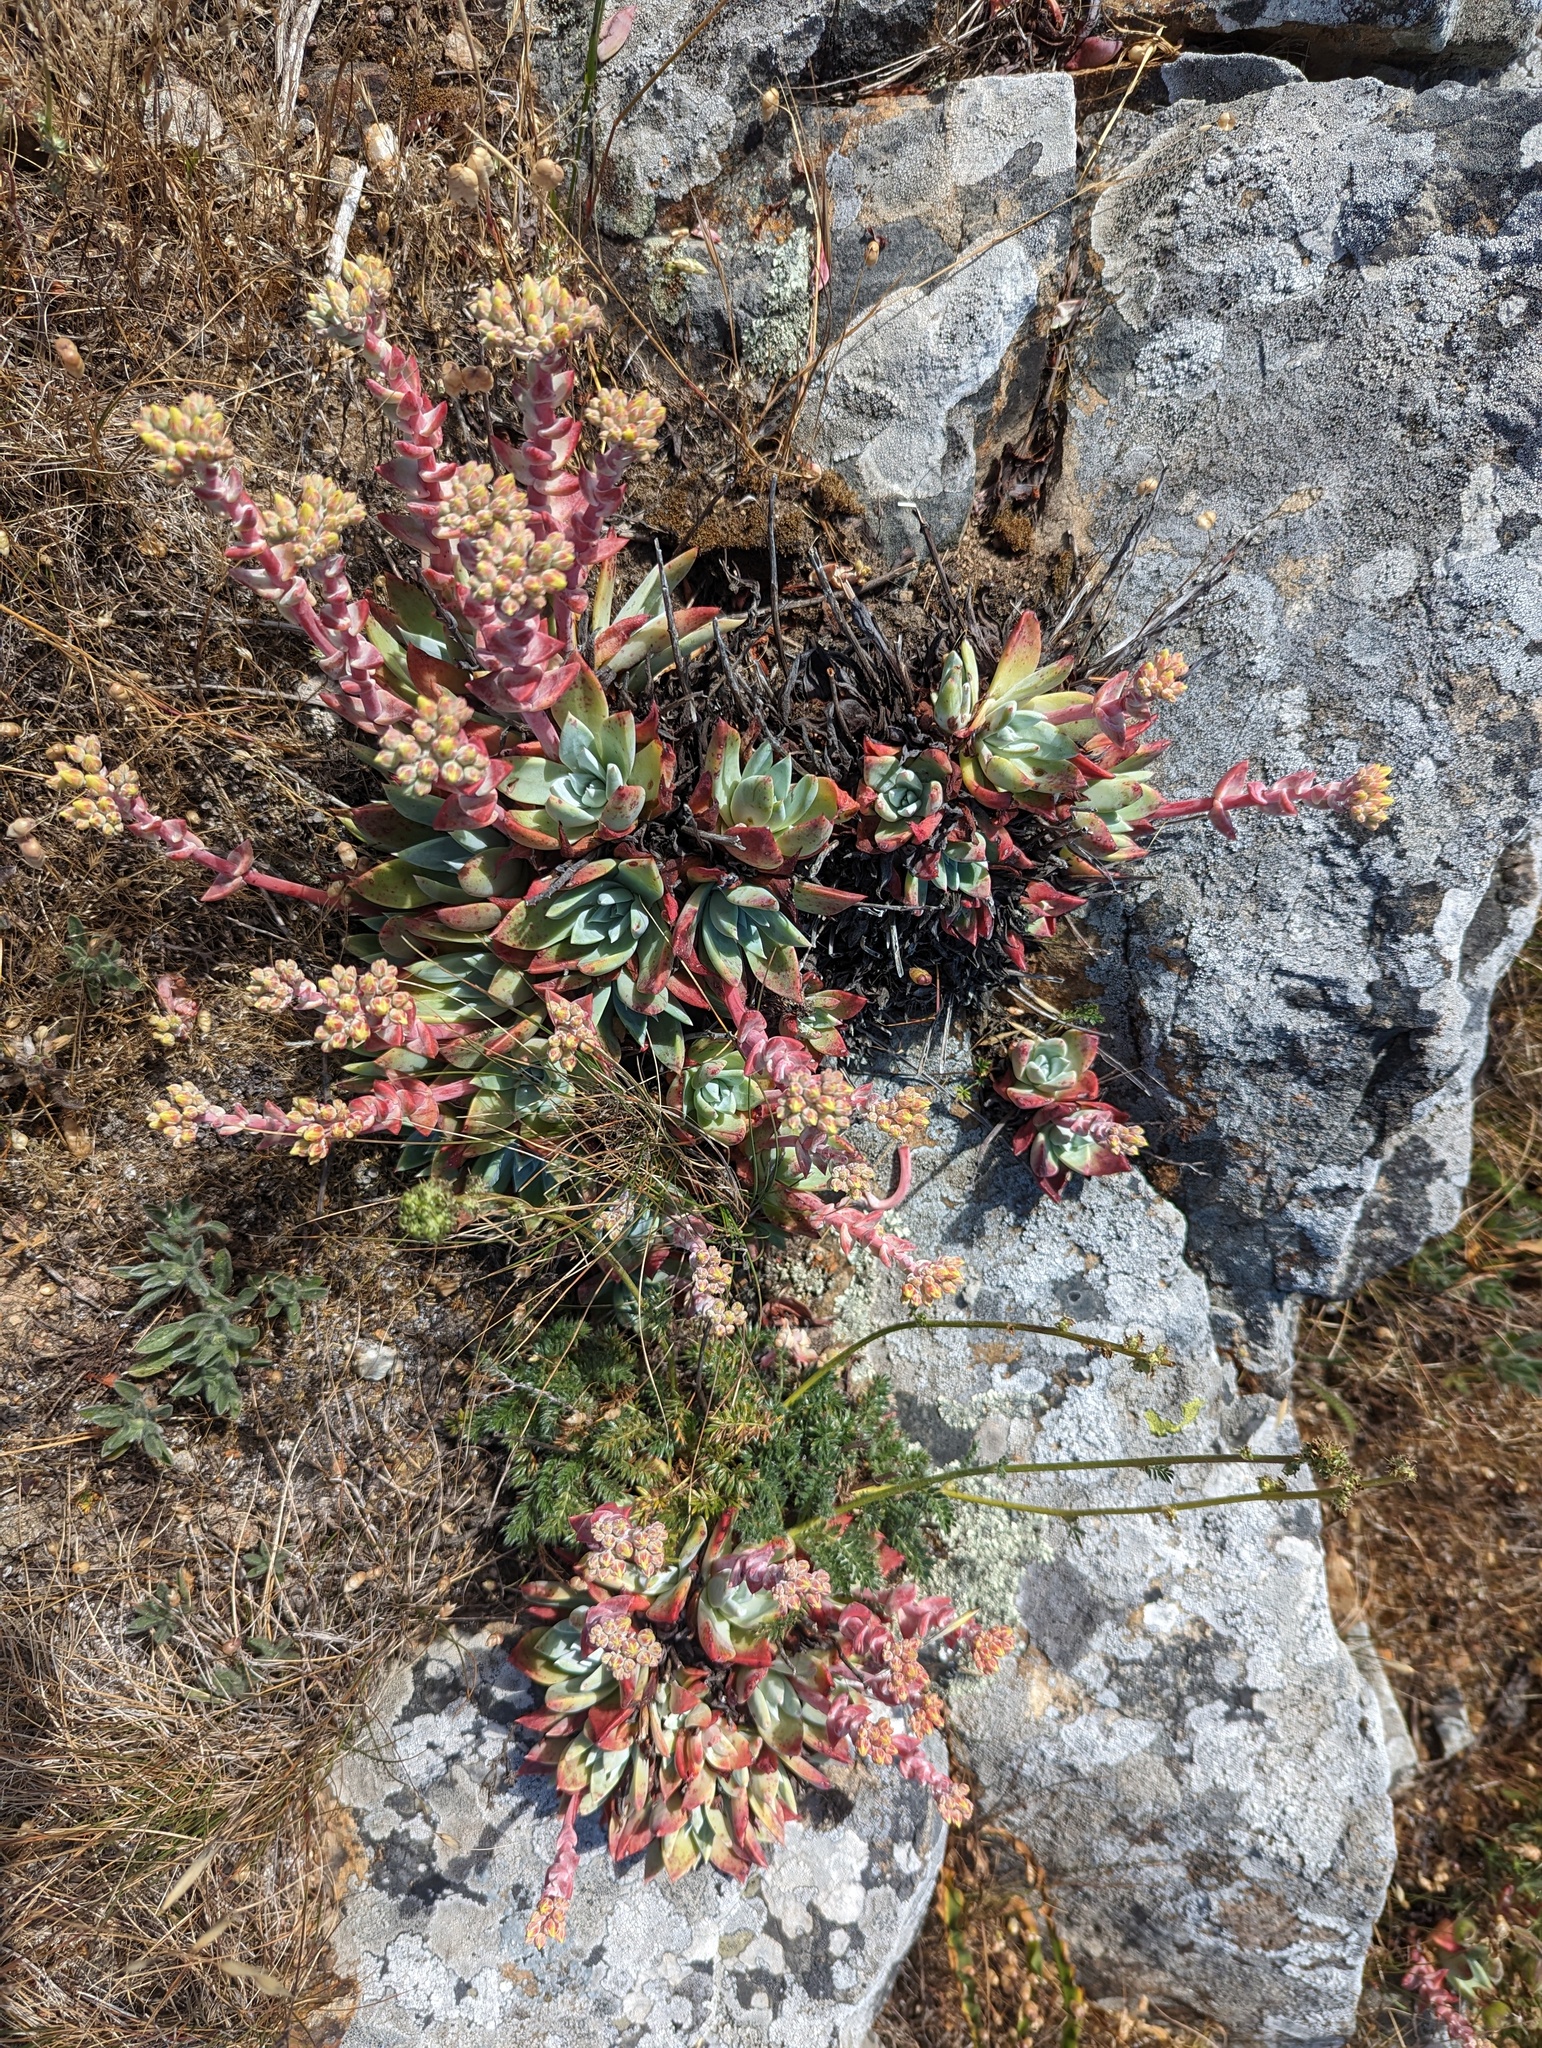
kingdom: Plantae
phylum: Tracheophyta
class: Magnoliopsida
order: Saxifragales
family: Crassulaceae
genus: Dudleya
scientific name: Dudleya farinosa
